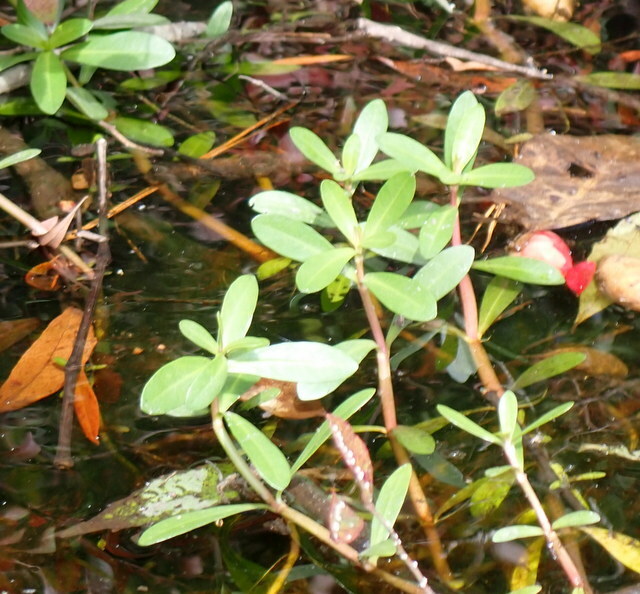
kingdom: Plantae
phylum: Tracheophyta
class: Magnoliopsida
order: Caryophyllales
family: Amaranthaceae
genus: Alternanthera
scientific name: Alternanthera philoxeroides
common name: Alligatorweed
